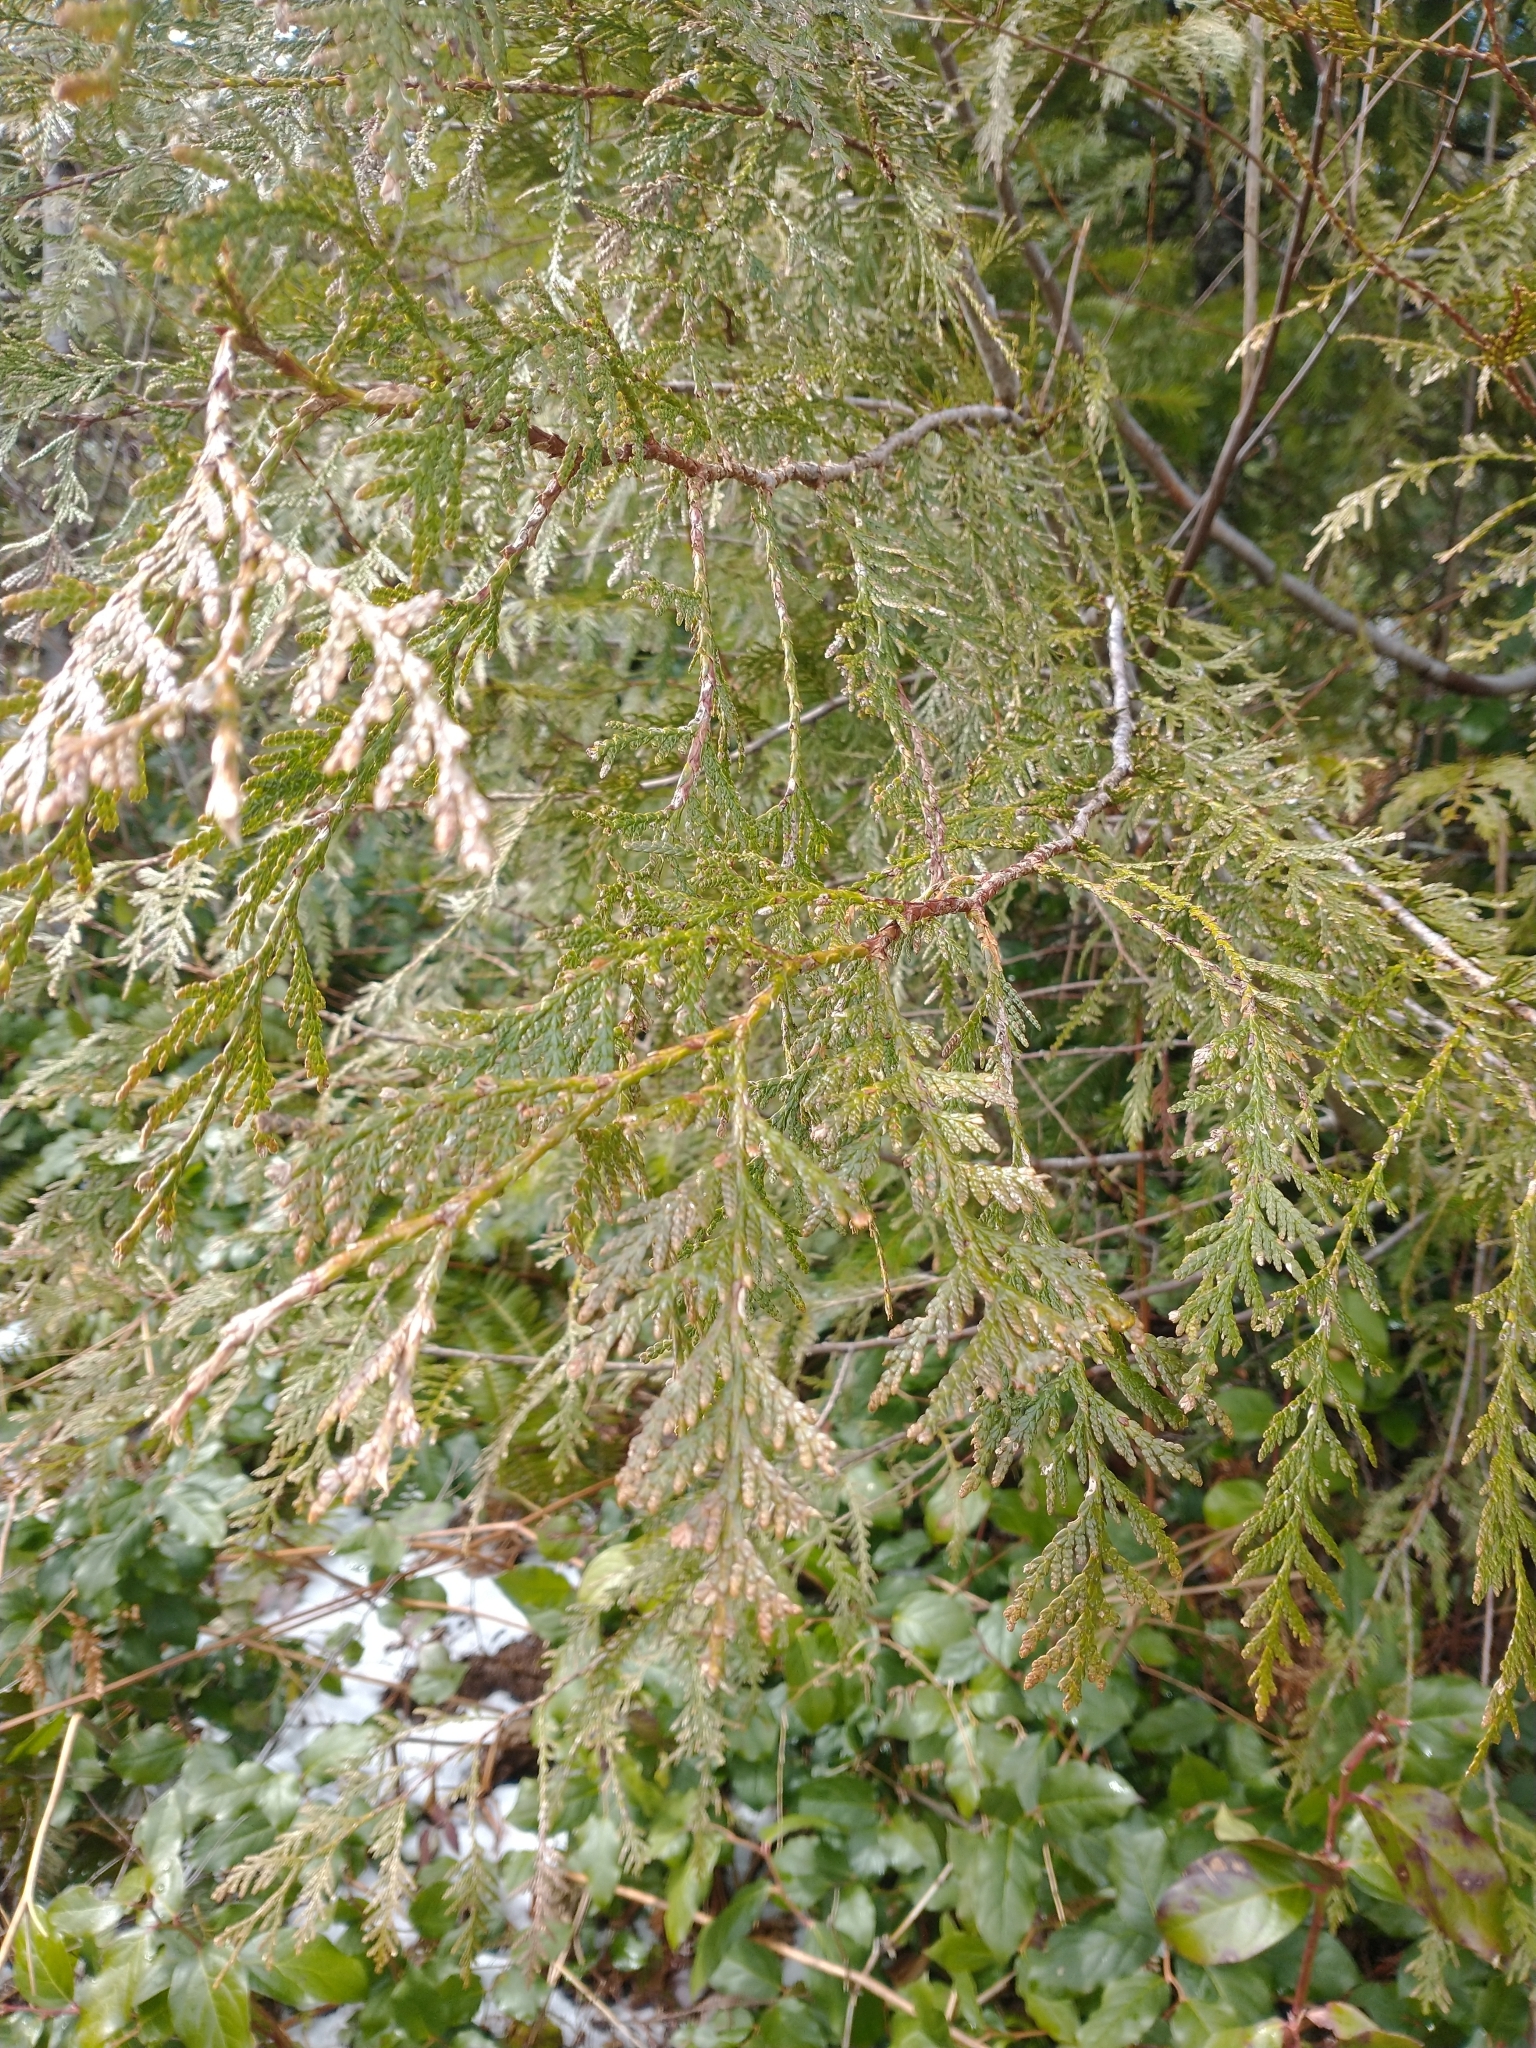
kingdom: Plantae
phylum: Tracheophyta
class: Pinopsida
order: Pinales
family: Cupressaceae
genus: Thuja
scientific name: Thuja plicata
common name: Western red-cedar
